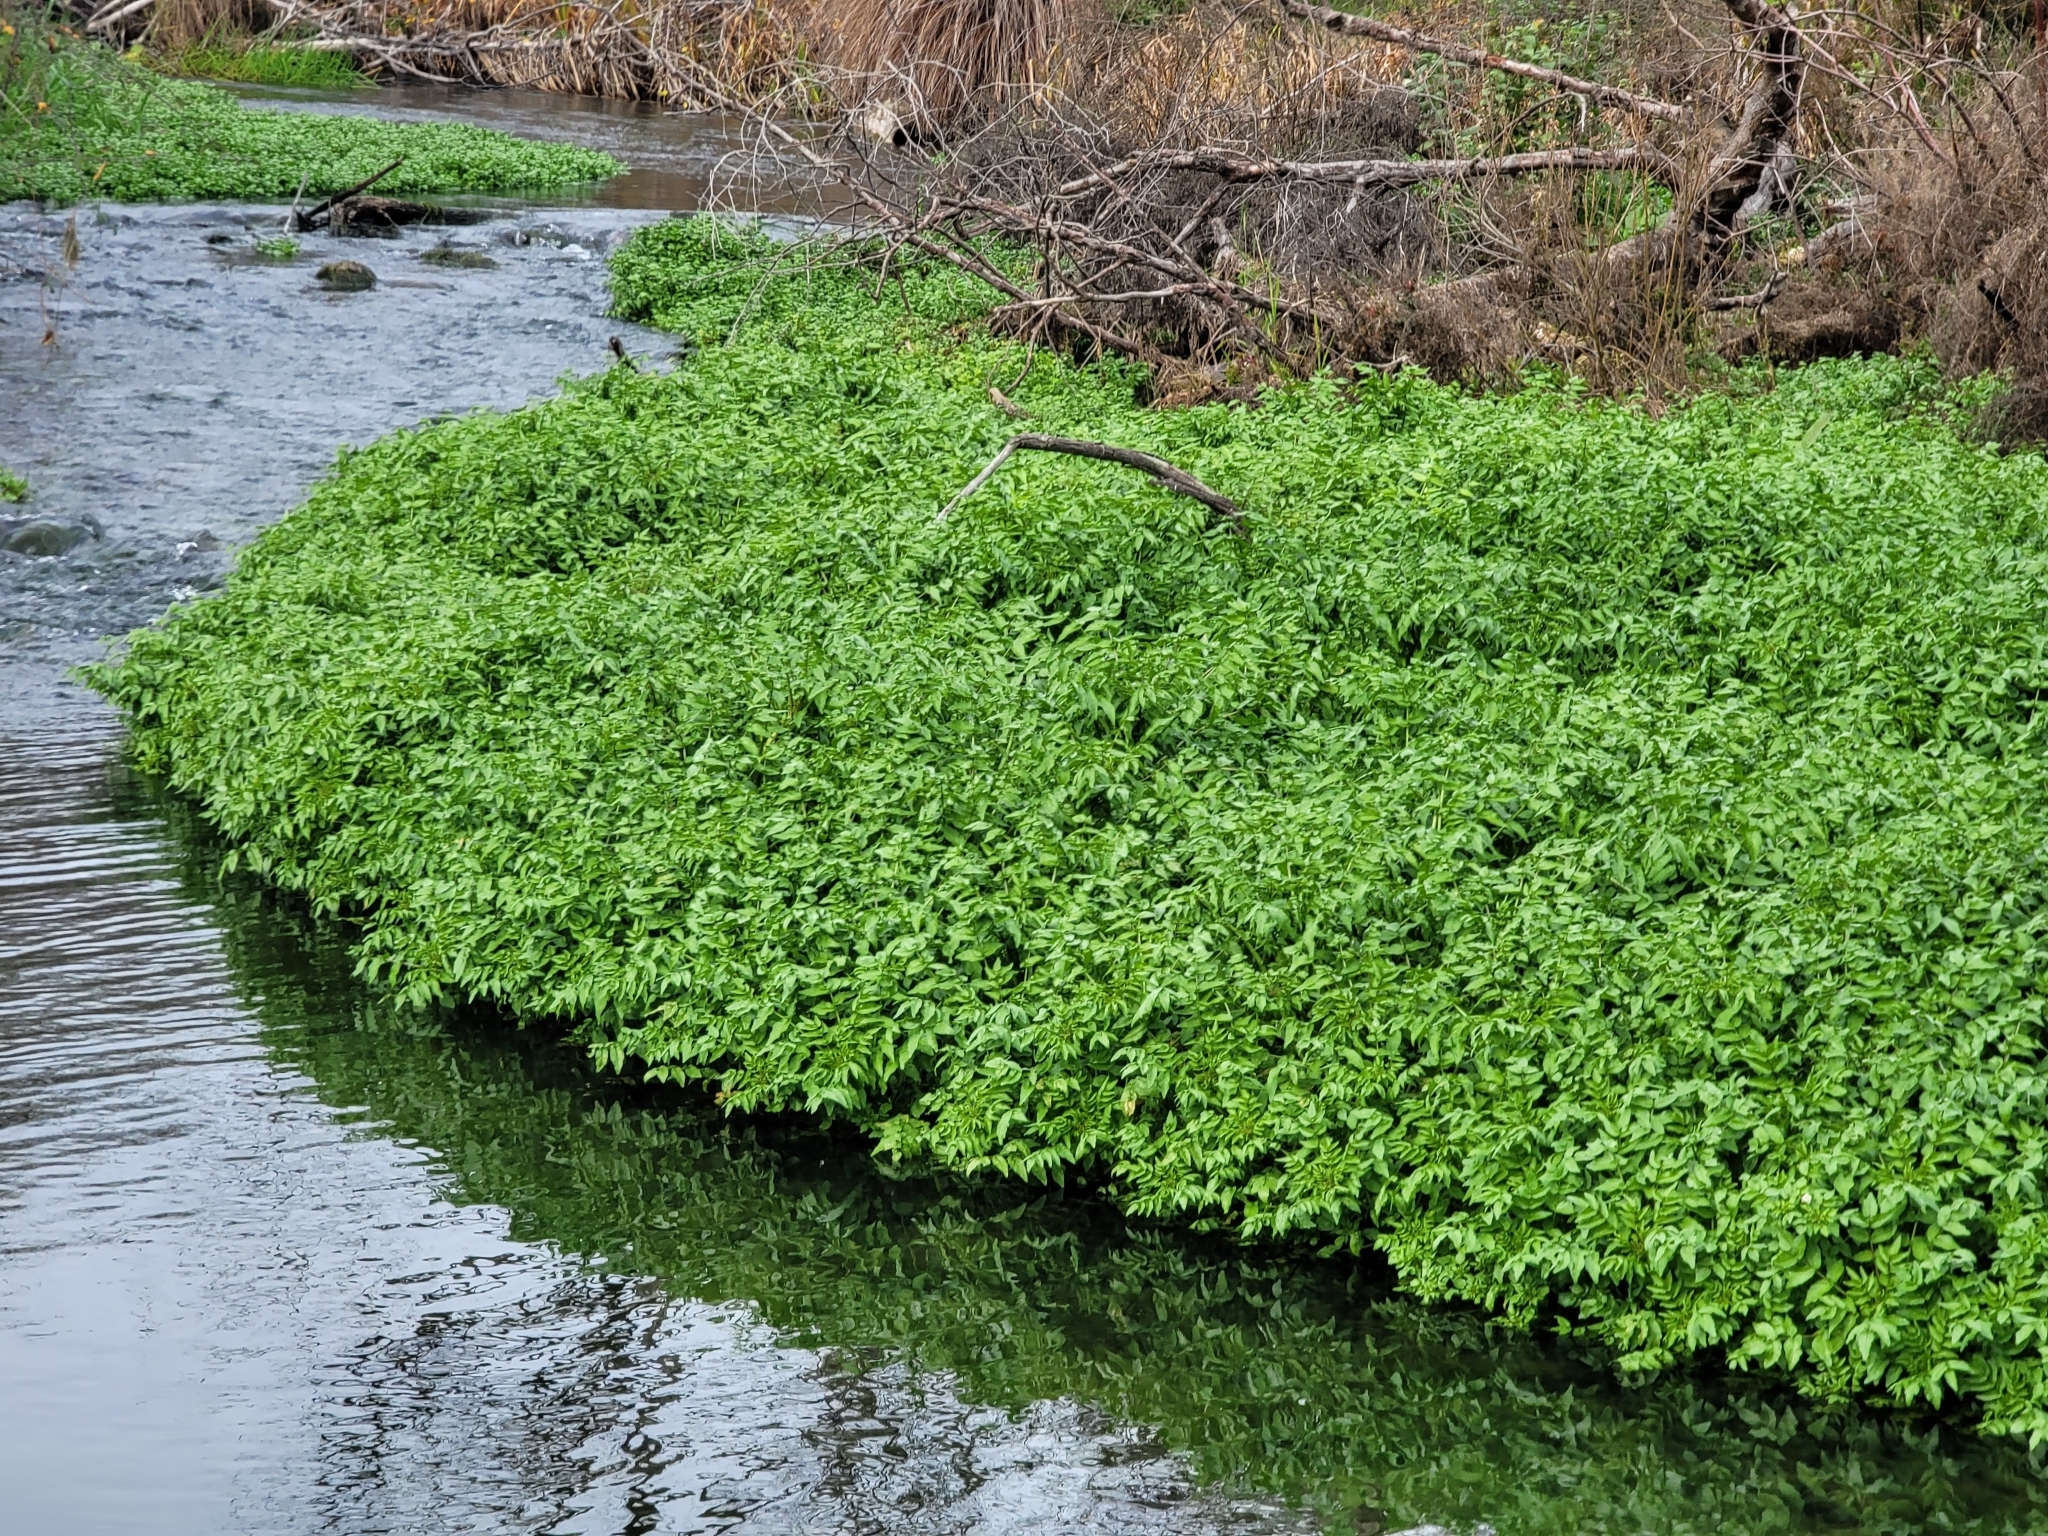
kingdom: Plantae
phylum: Tracheophyta
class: Magnoliopsida
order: Brassicales
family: Brassicaceae
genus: Nasturtium
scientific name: Nasturtium officinale
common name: Watercress
